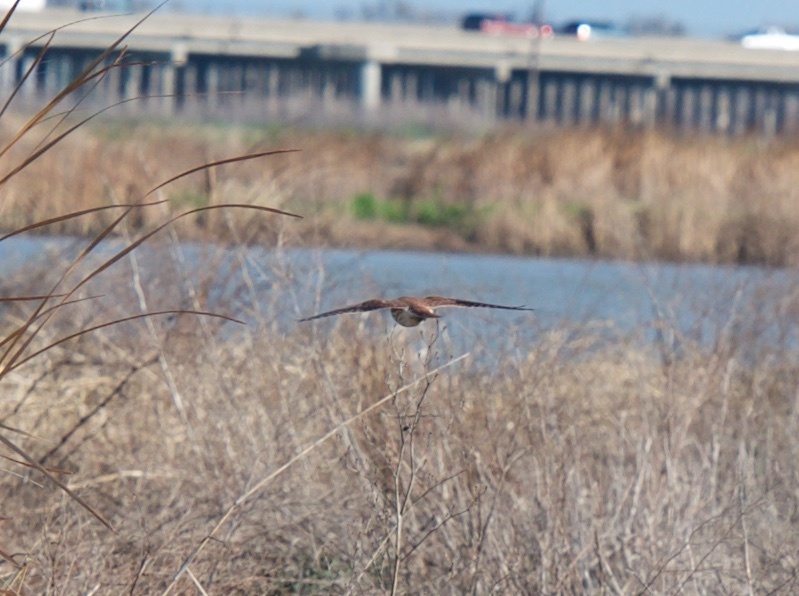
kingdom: Animalia
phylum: Chordata
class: Aves
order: Falconiformes
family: Falconidae
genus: Falco
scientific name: Falco sparverius
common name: American kestrel
